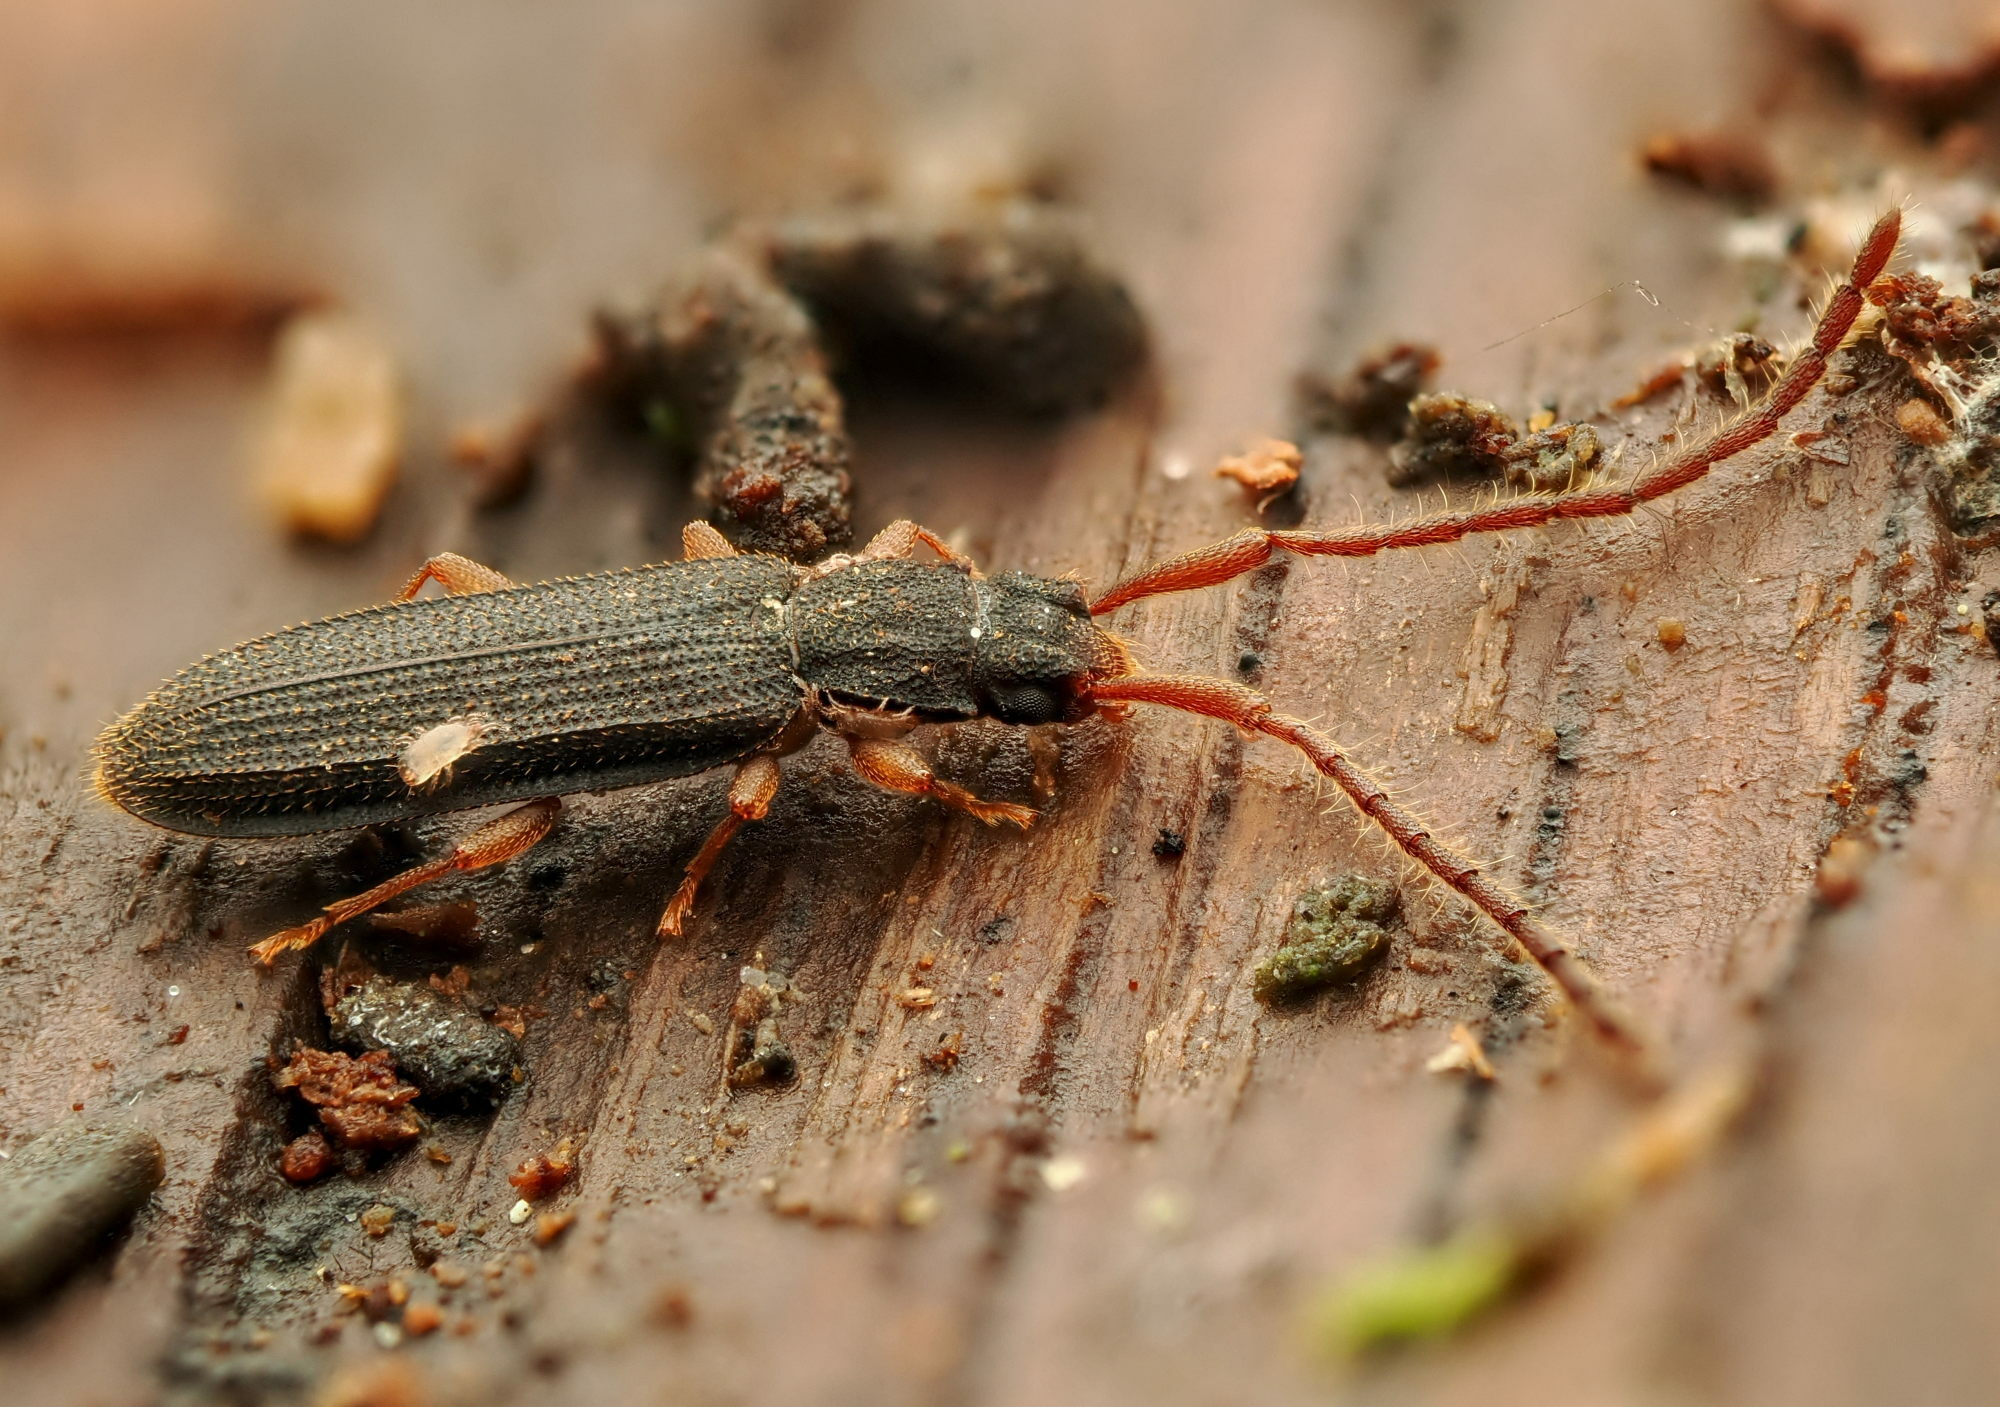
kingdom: Animalia
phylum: Arthropoda
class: Insecta
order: Coleoptera
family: Silvanidae
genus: Uleiota
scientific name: Uleiota planatus
